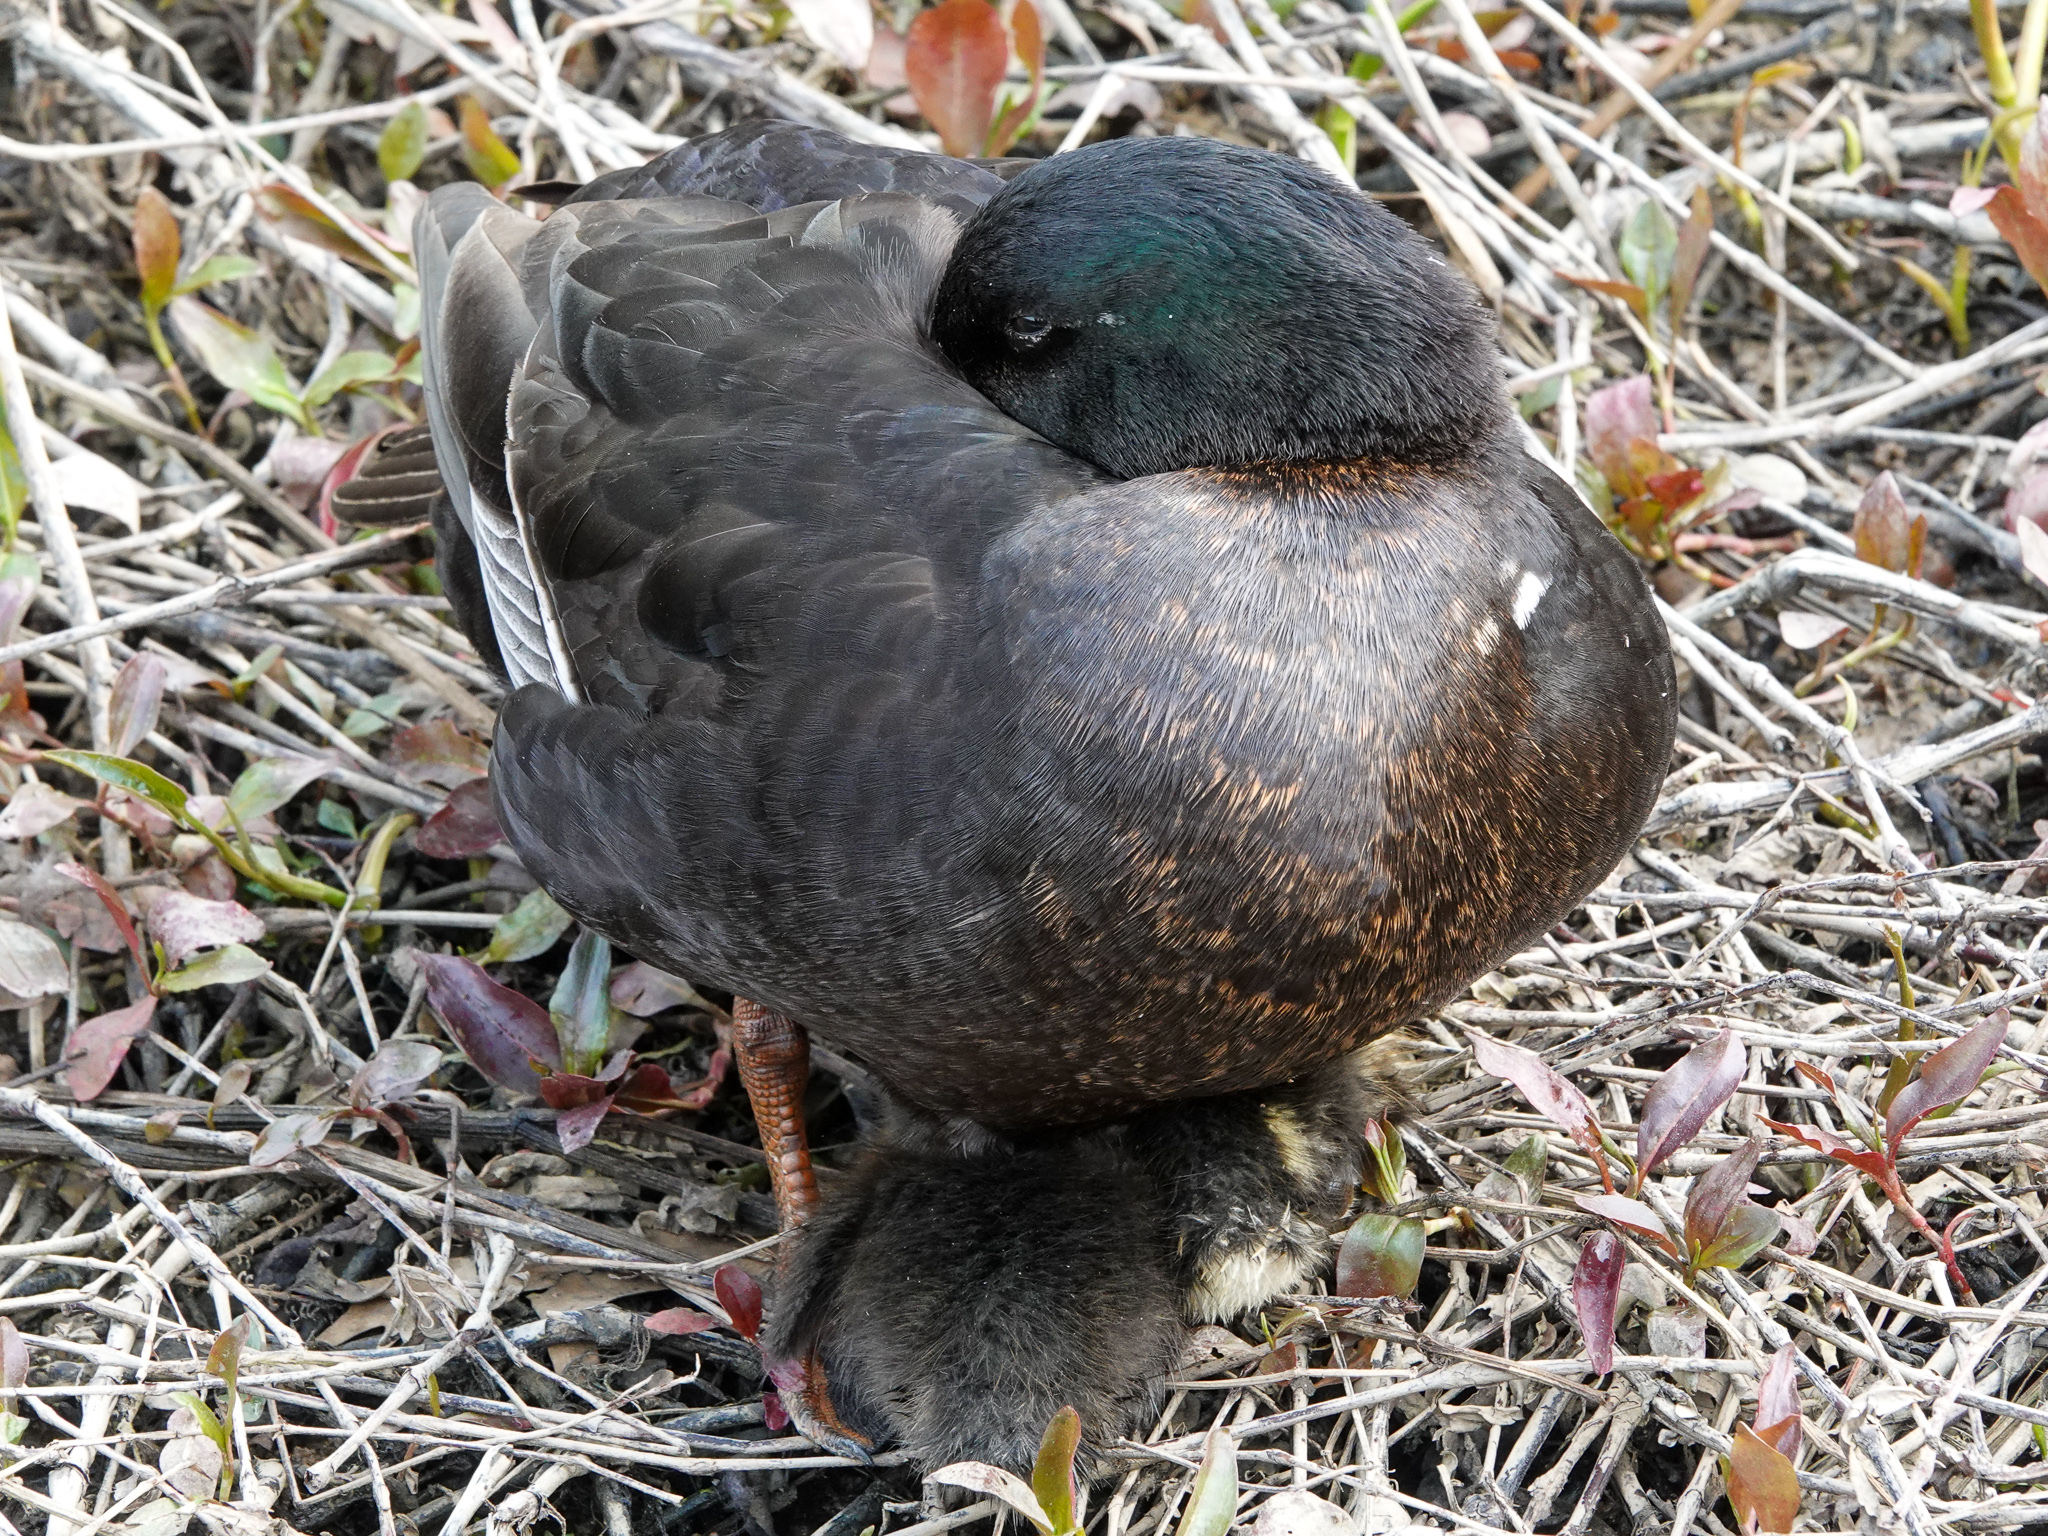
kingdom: Animalia
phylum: Chordata
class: Aves
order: Anseriformes
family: Anatidae
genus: Anas
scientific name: Anas platyrhynchos
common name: Mallard
